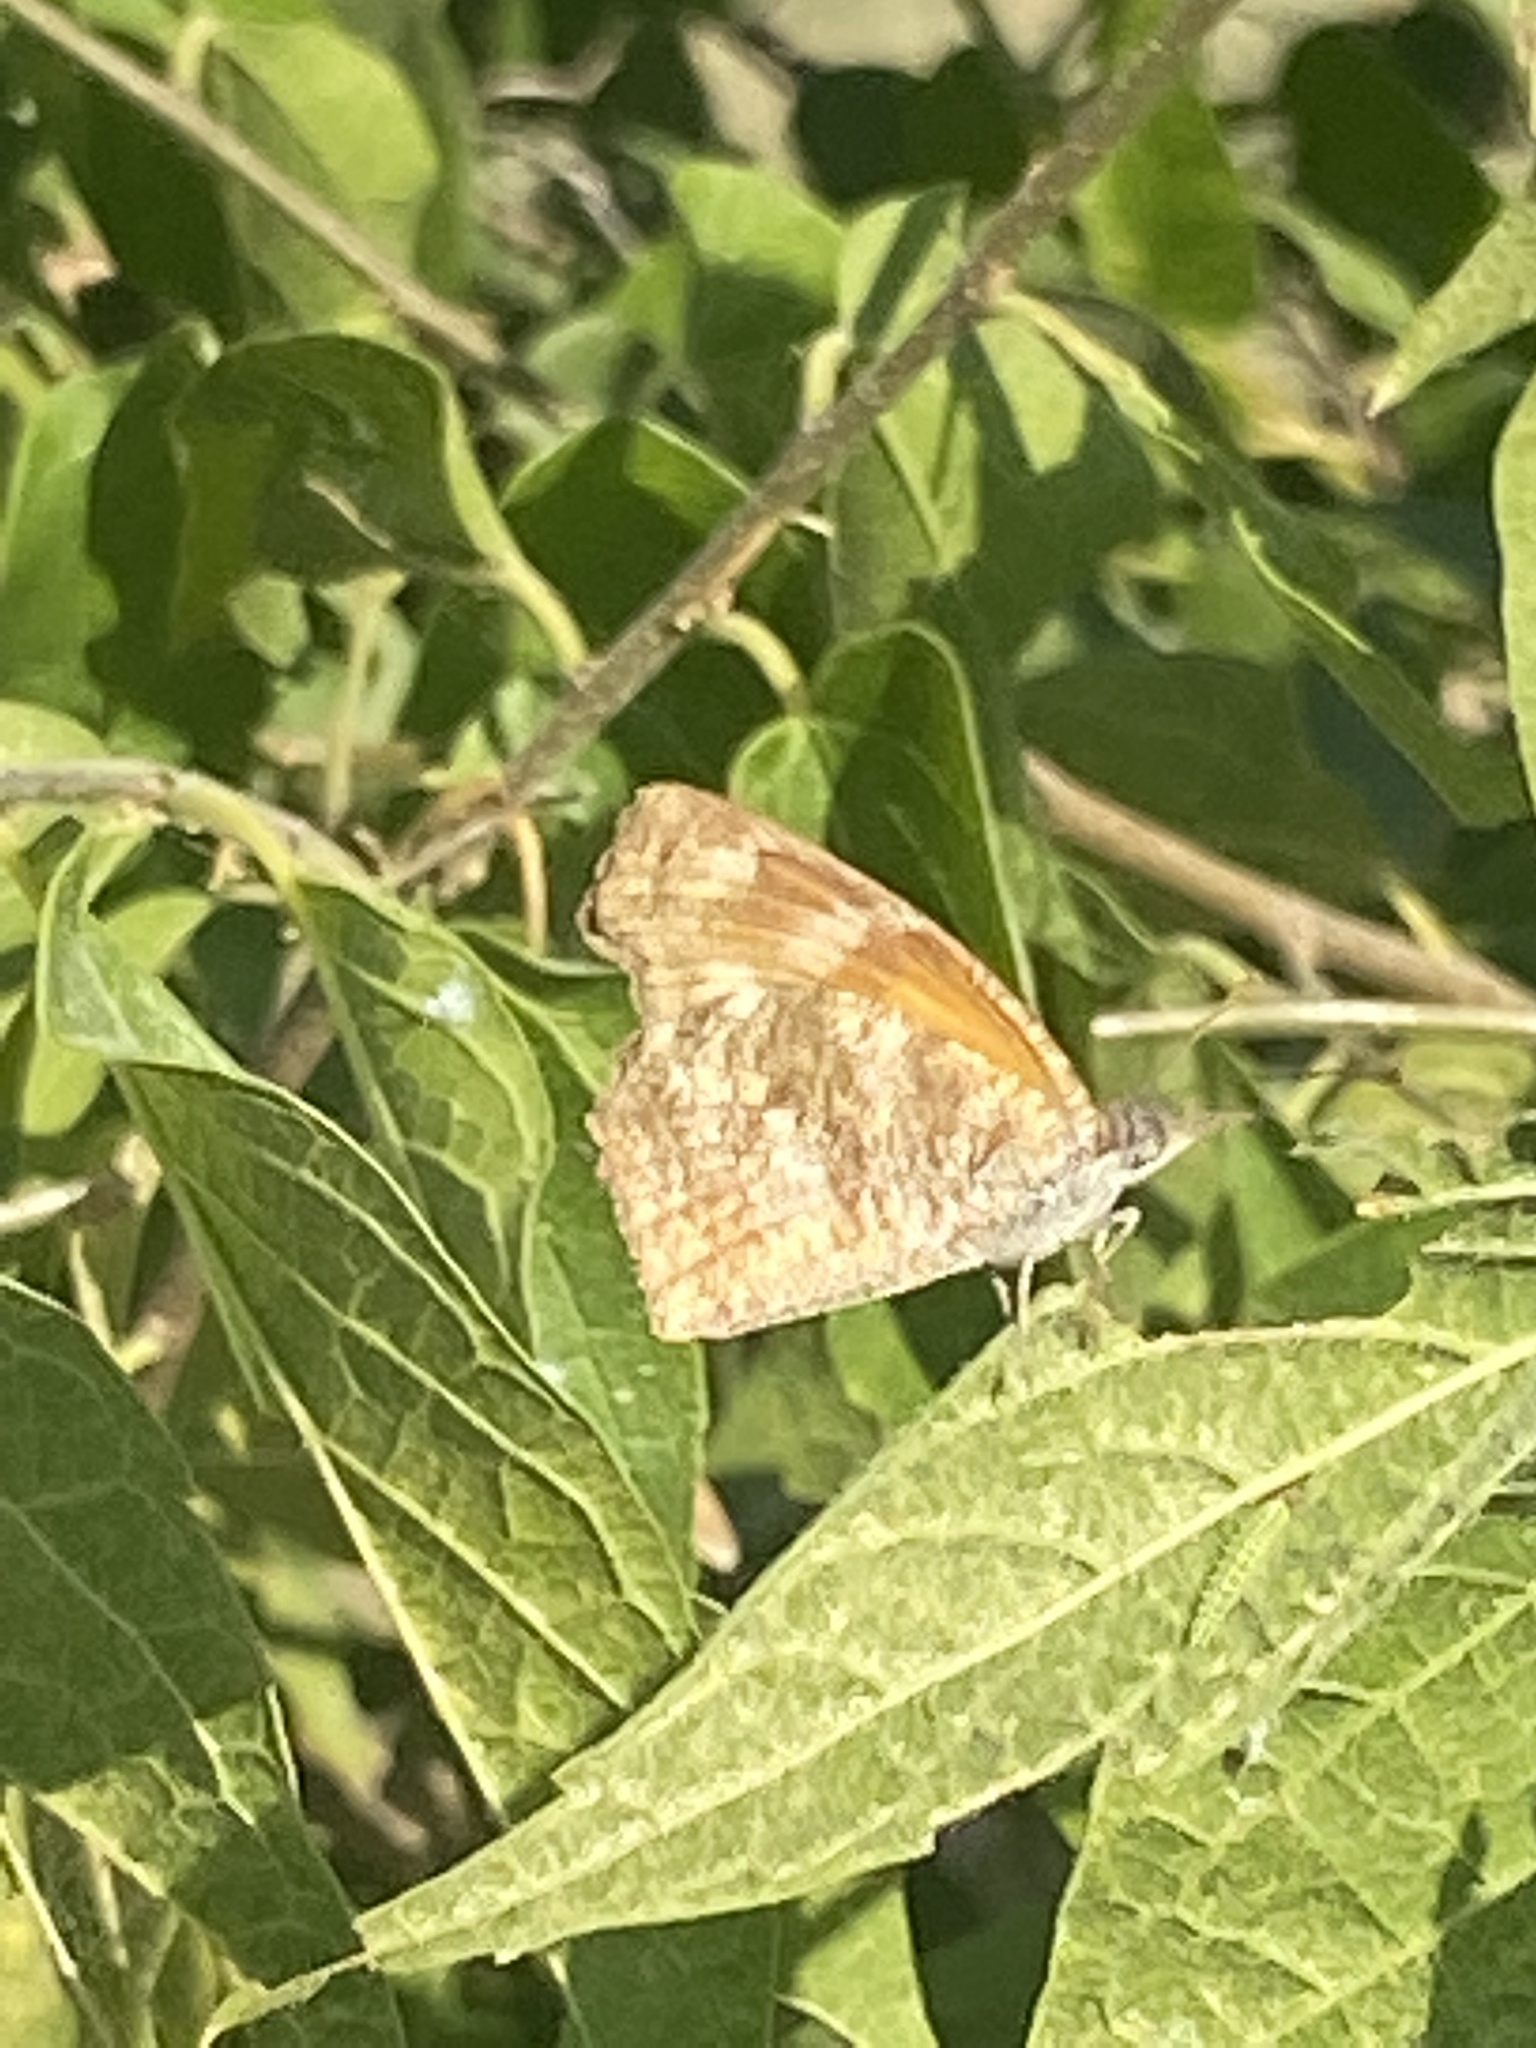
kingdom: Animalia
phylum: Arthropoda
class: Insecta
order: Lepidoptera
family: Nymphalidae
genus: Libytheana
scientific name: Libytheana carinenta
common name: American snout
